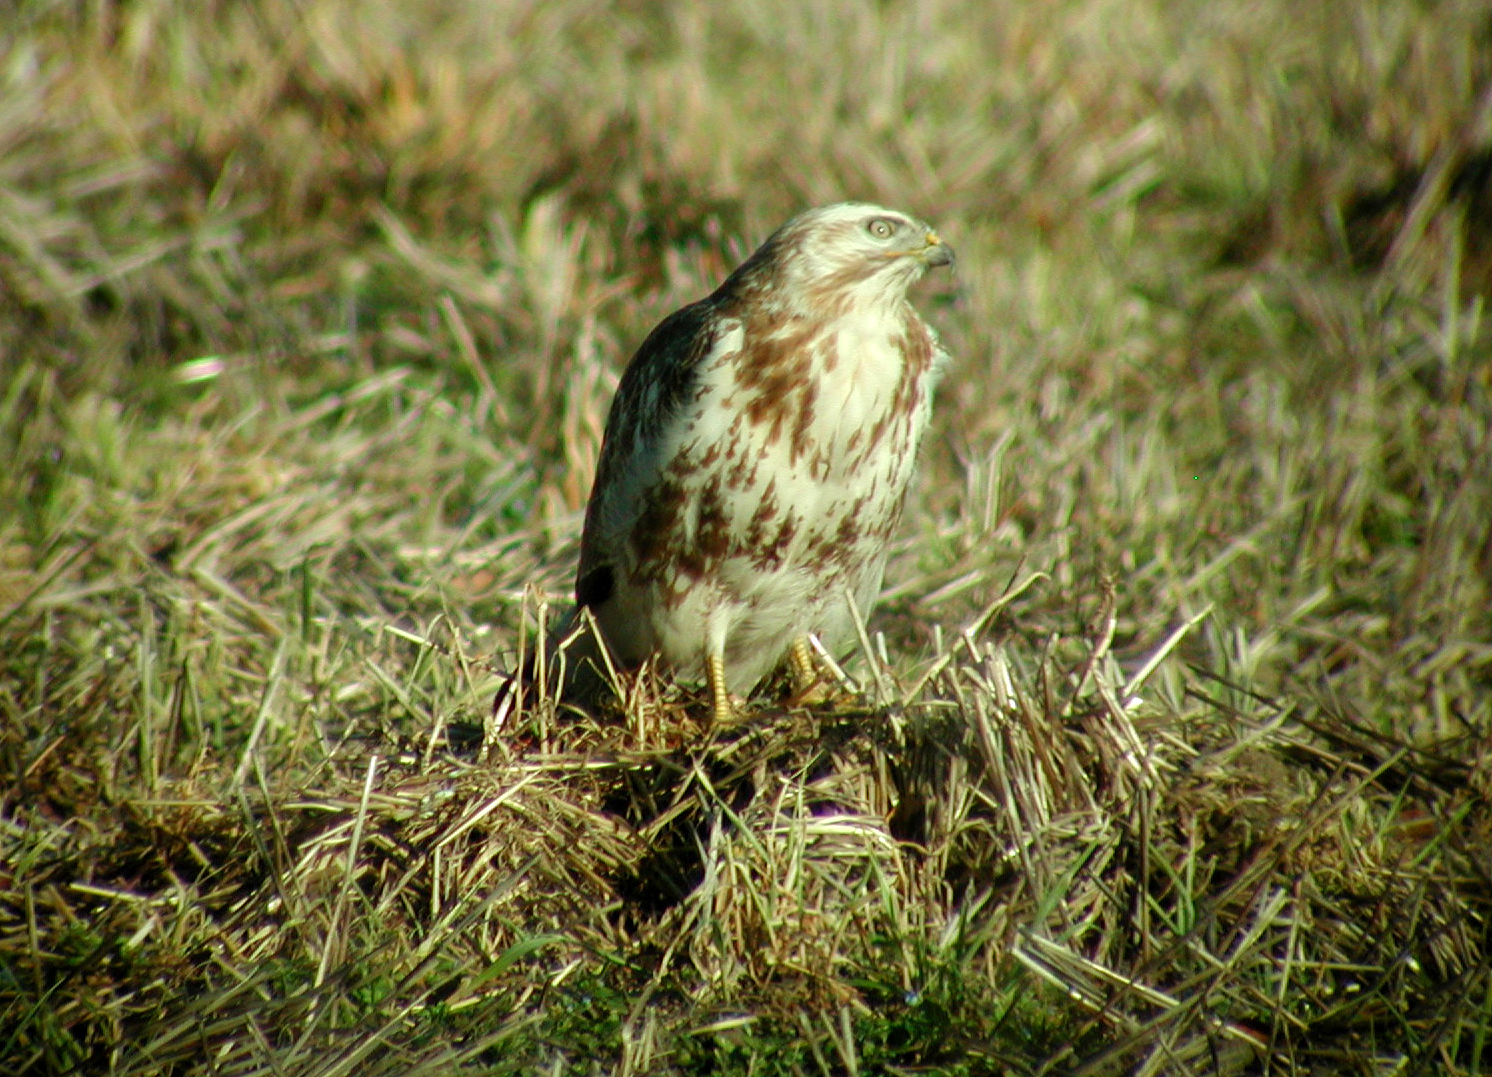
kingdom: Animalia
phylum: Chordata
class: Aves
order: Accipitriformes
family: Accipitridae
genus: Buteo
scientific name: Buteo buteo
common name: Common buzzard
